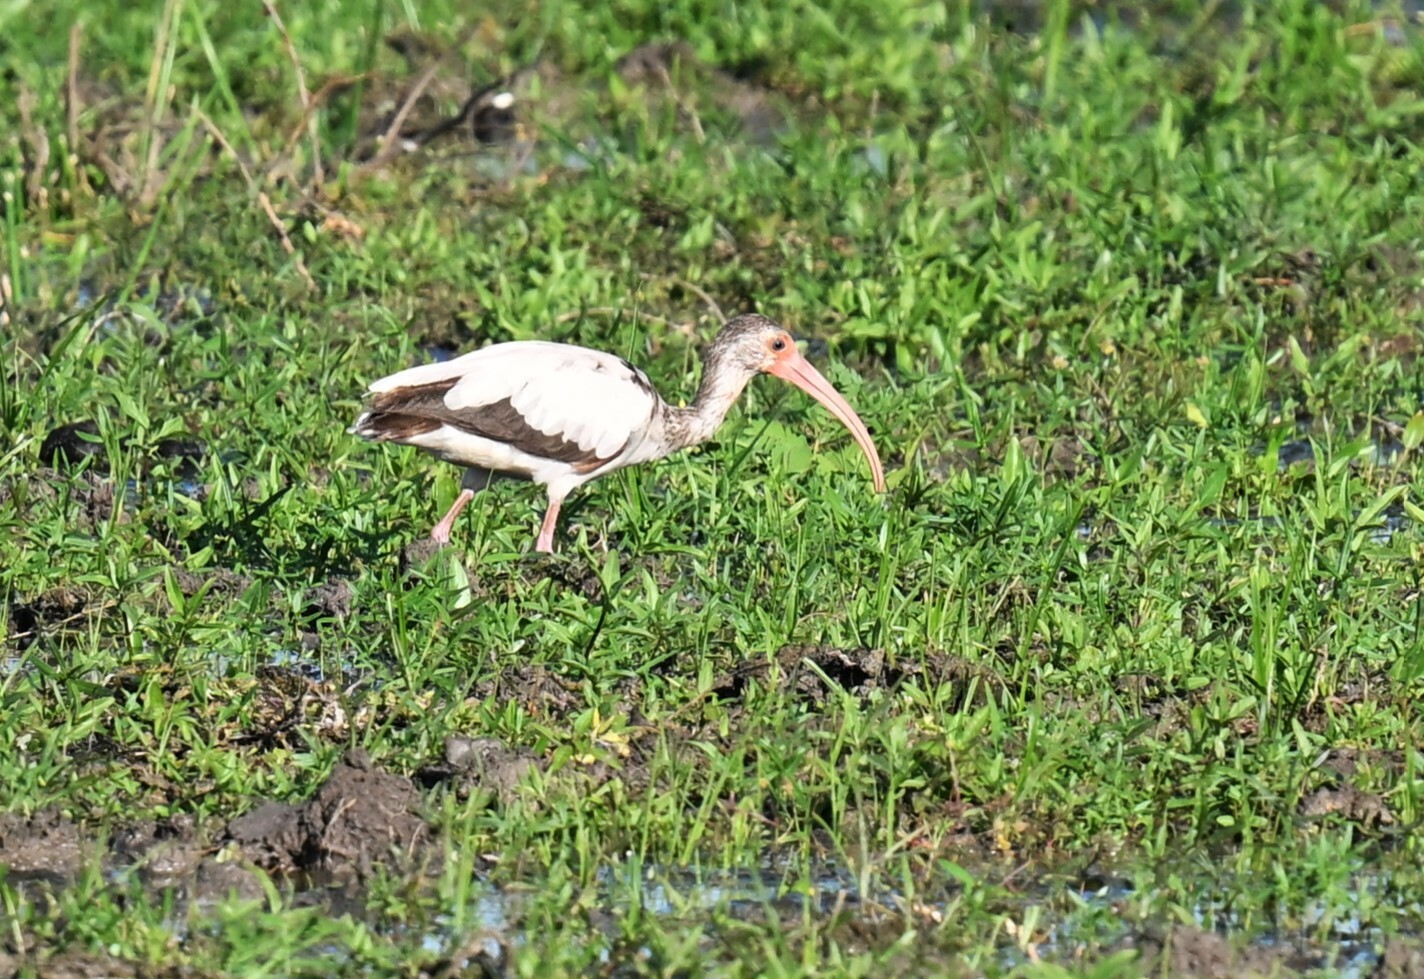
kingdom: Animalia
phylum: Chordata
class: Aves
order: Pelecaniformes
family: Threskiornithidae
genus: Eudocimus
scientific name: Eudocimus albus
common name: White ibis
